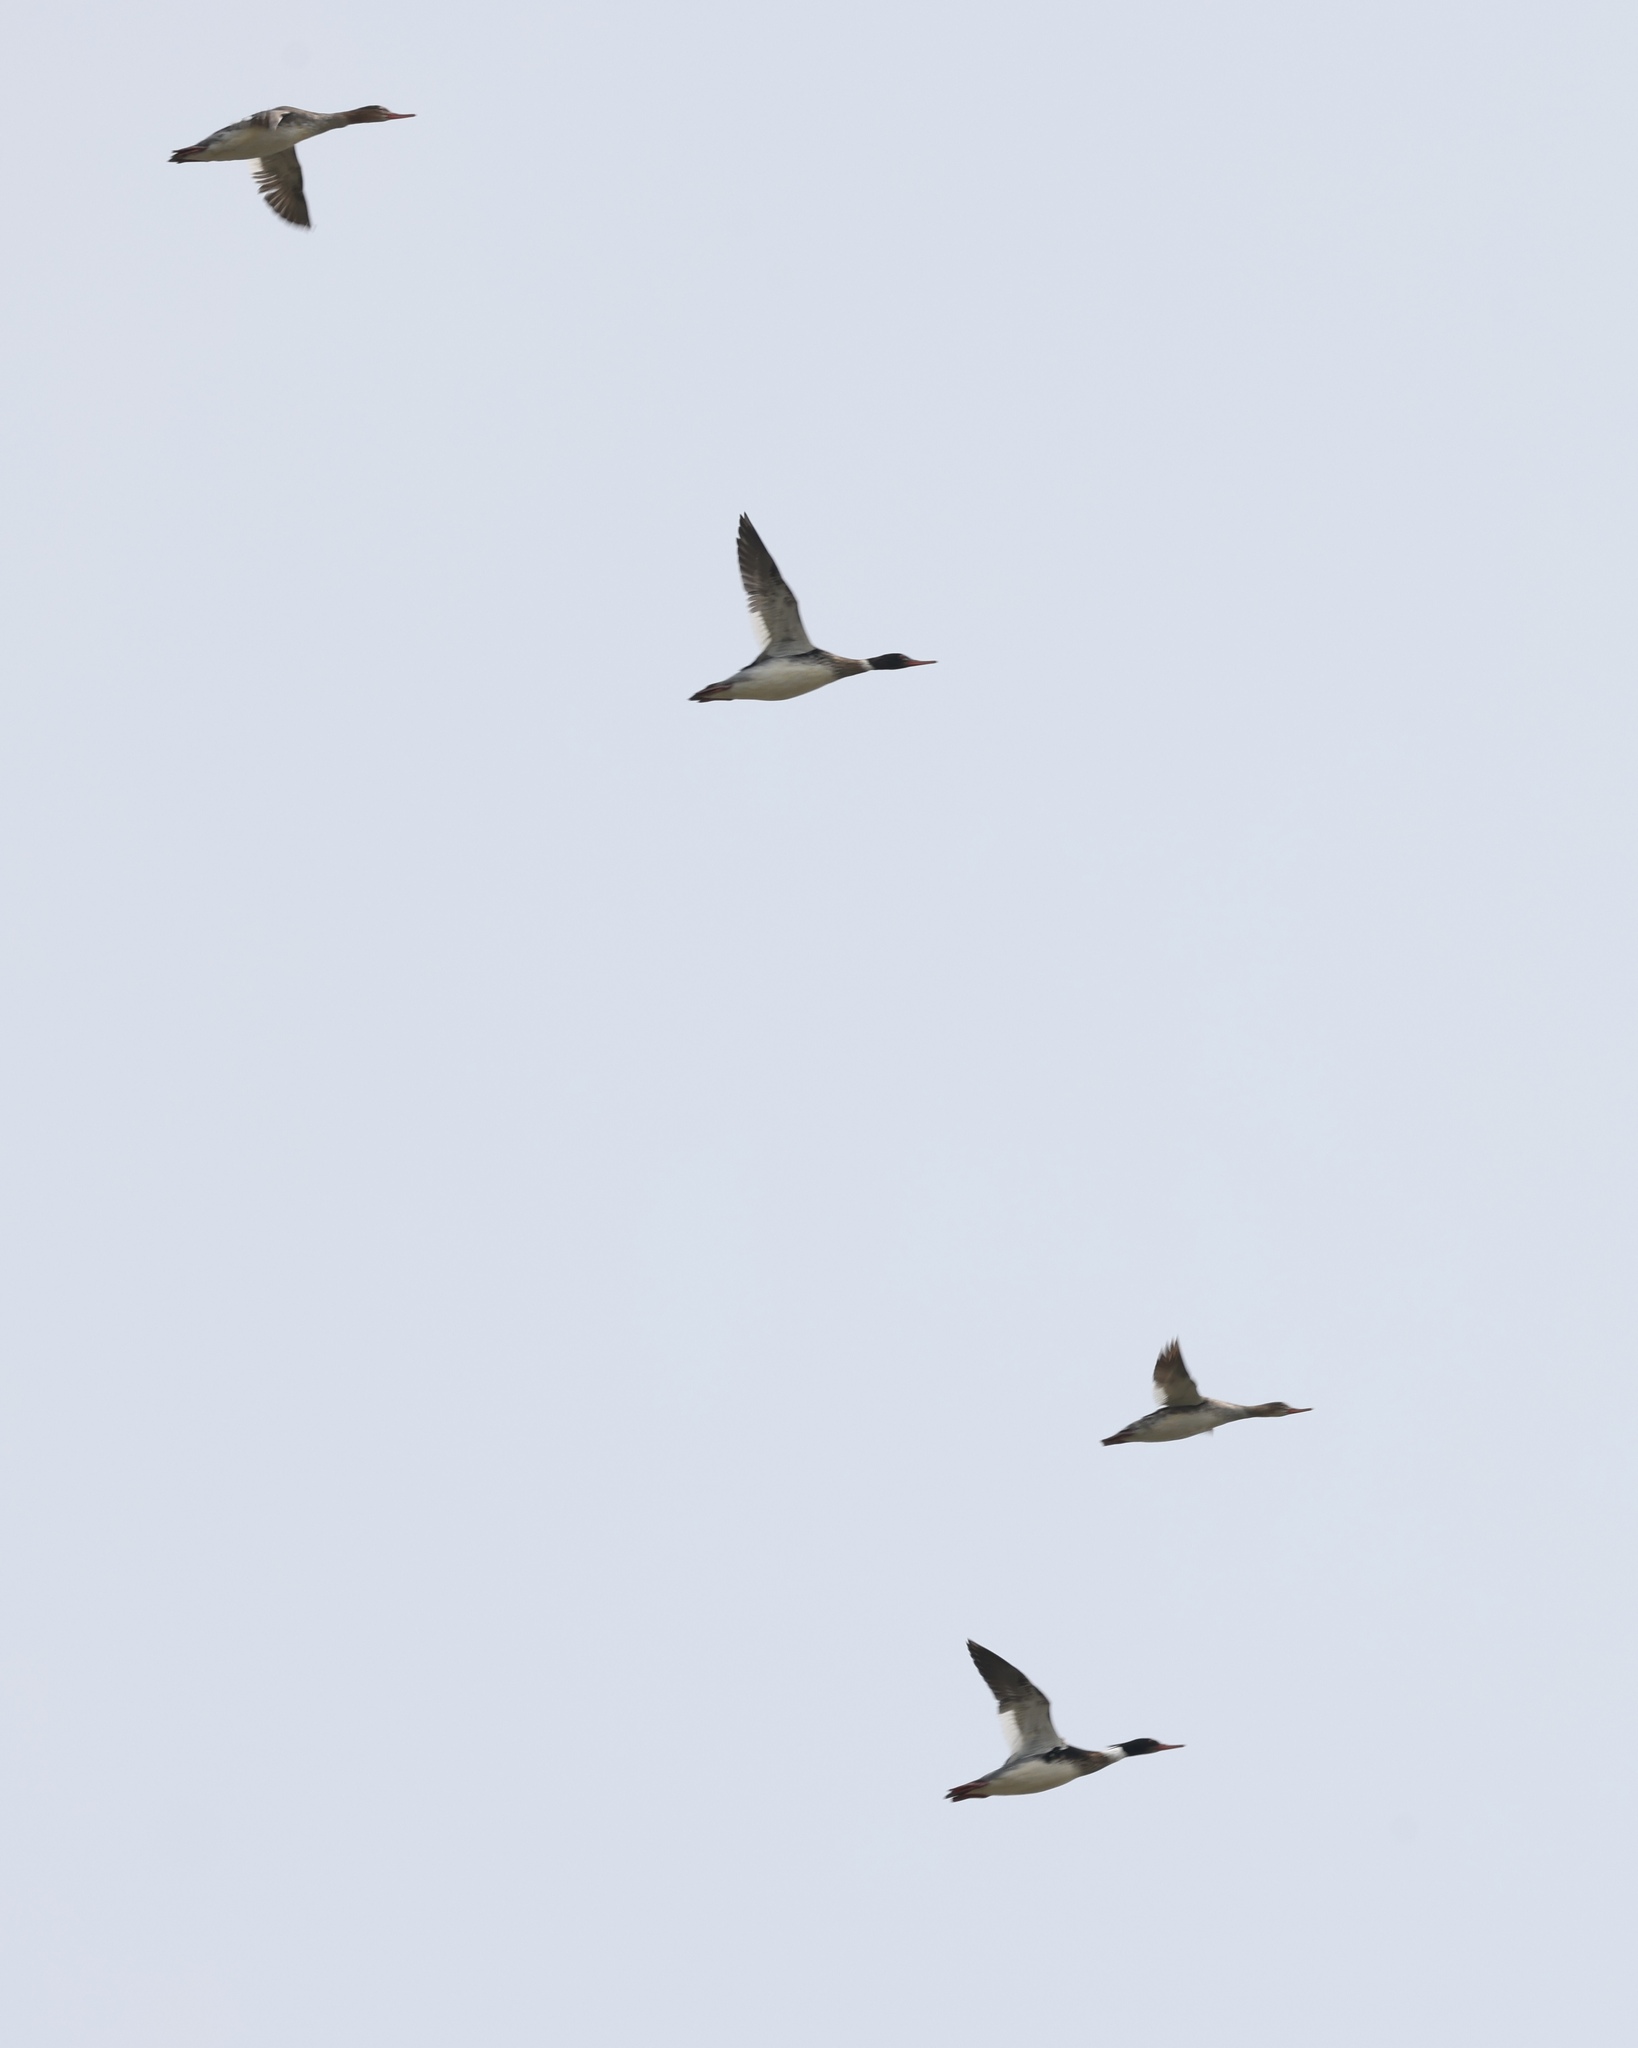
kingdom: Animalia
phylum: Chordata
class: Aves
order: Anseriformes
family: Anatidae
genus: Mergus
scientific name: Mergus serrator
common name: Red-breasted merganser
